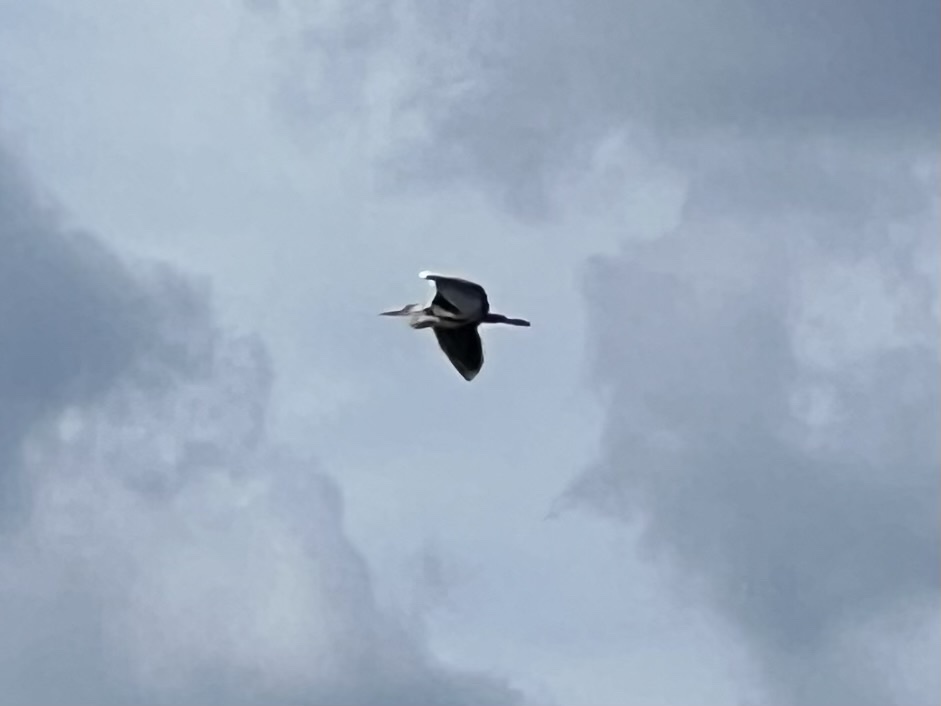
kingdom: Animalia
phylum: Chordata
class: Aves
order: Pelecaniformes
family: Ardeidae
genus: Ardea
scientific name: Ardea cinerea
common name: Grey heron
